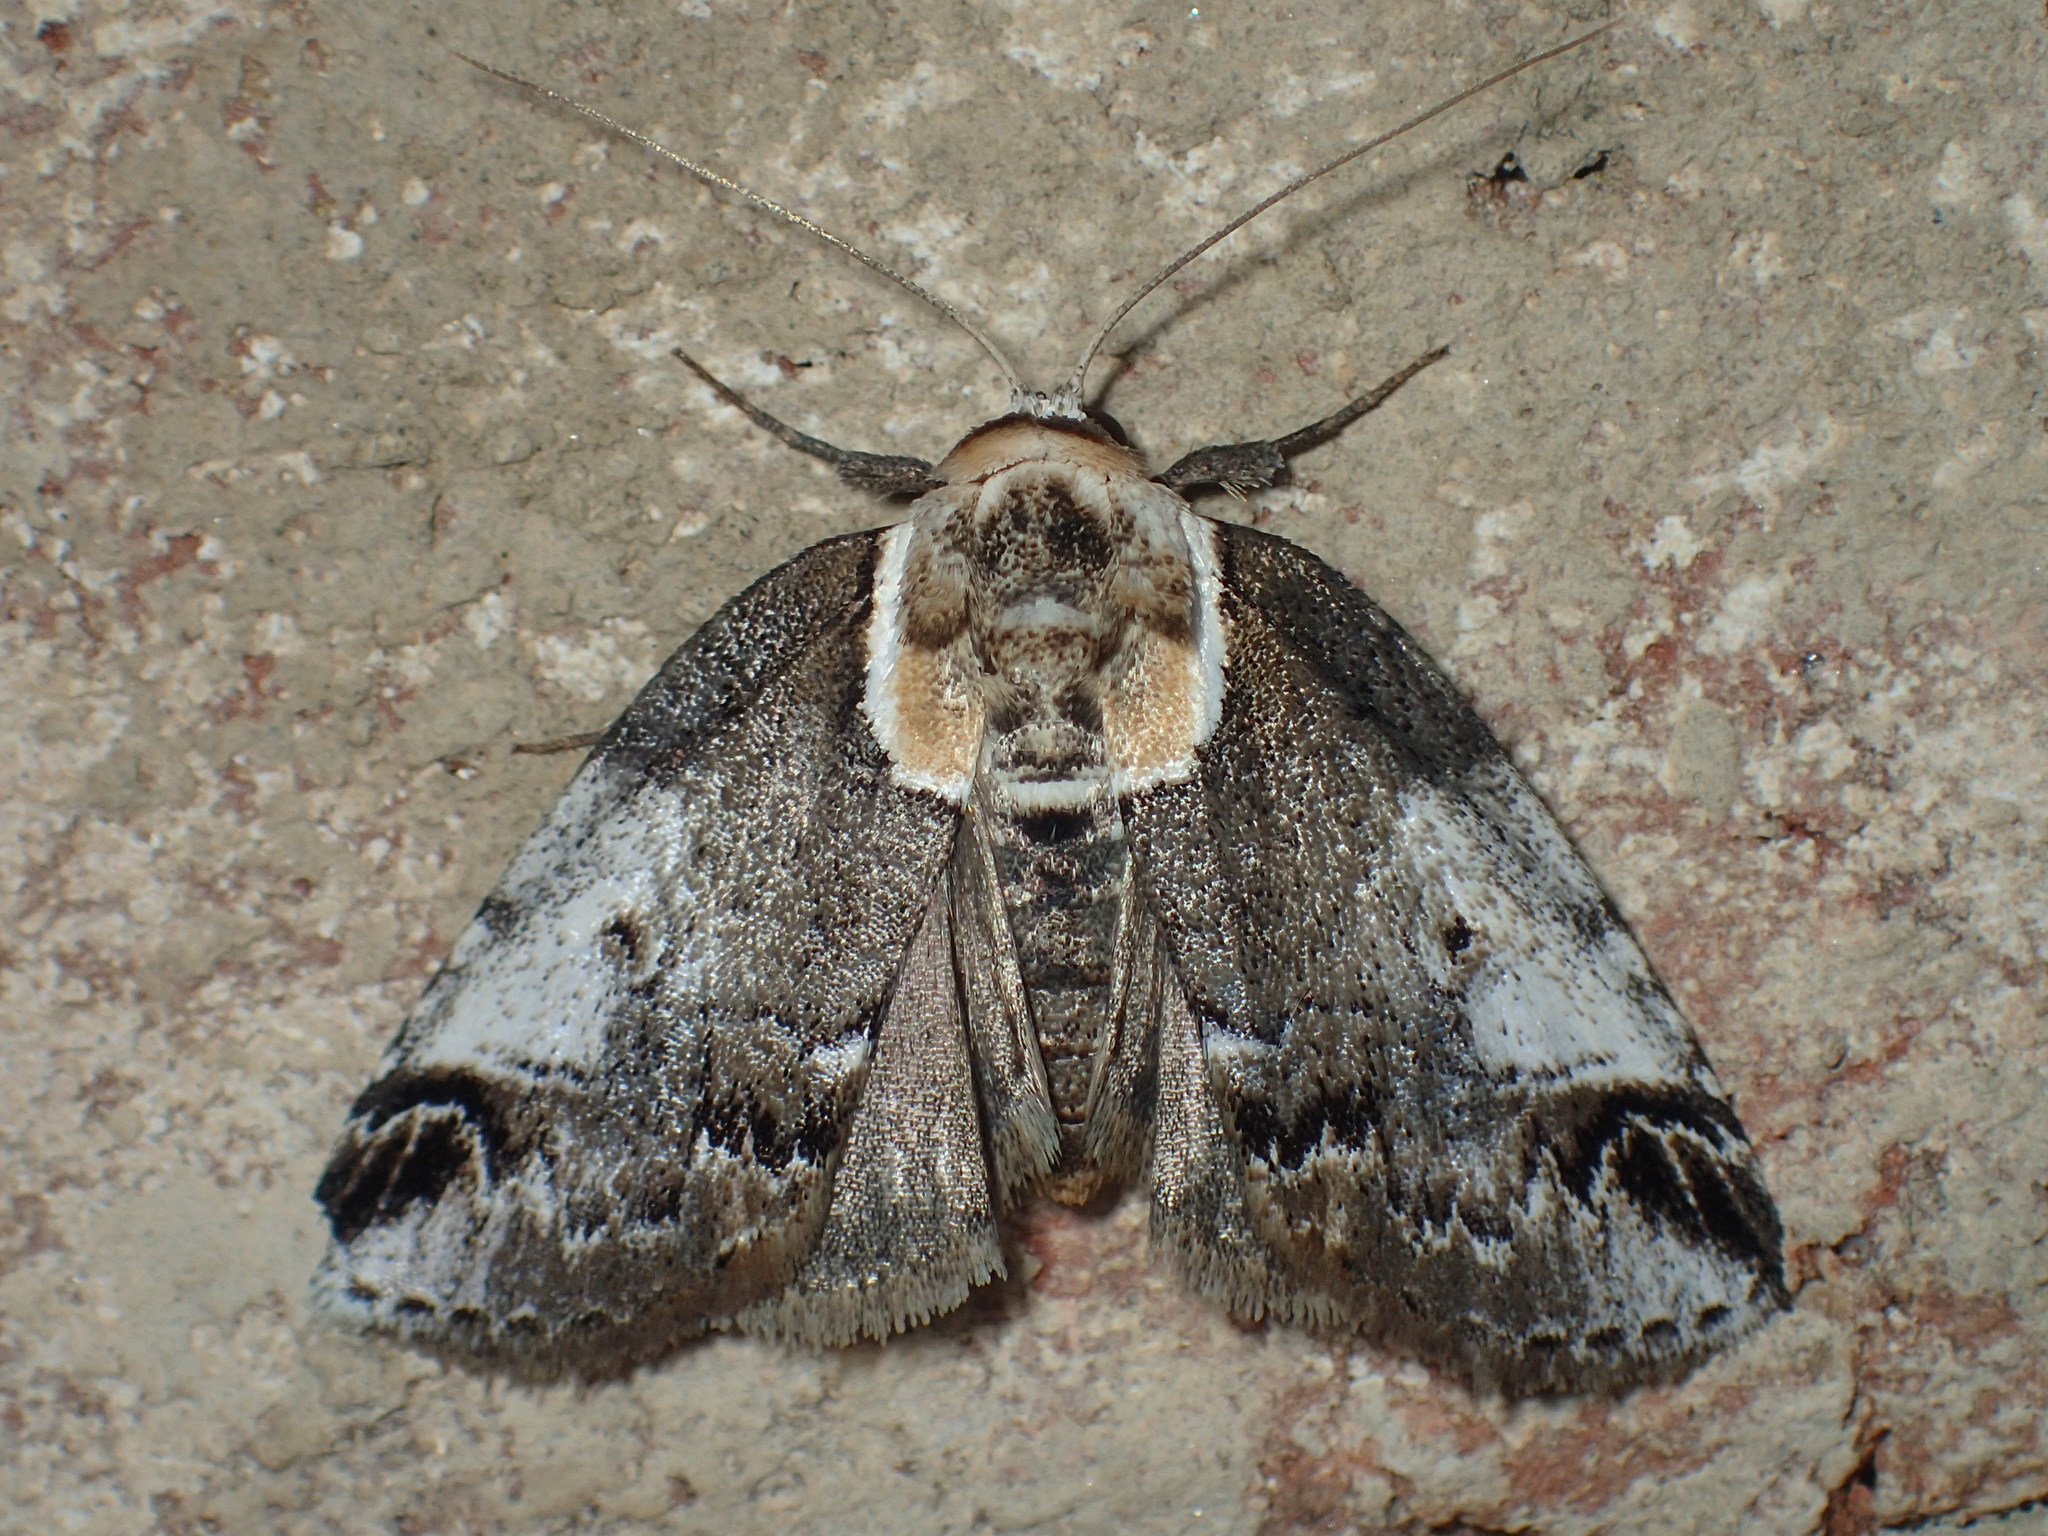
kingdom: Animalia
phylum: Arthropoda
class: Insecta
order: Lepidoptera
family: Nolidae
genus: Baileya
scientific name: Baileya ophthalmica
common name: Eyed baileya moth
